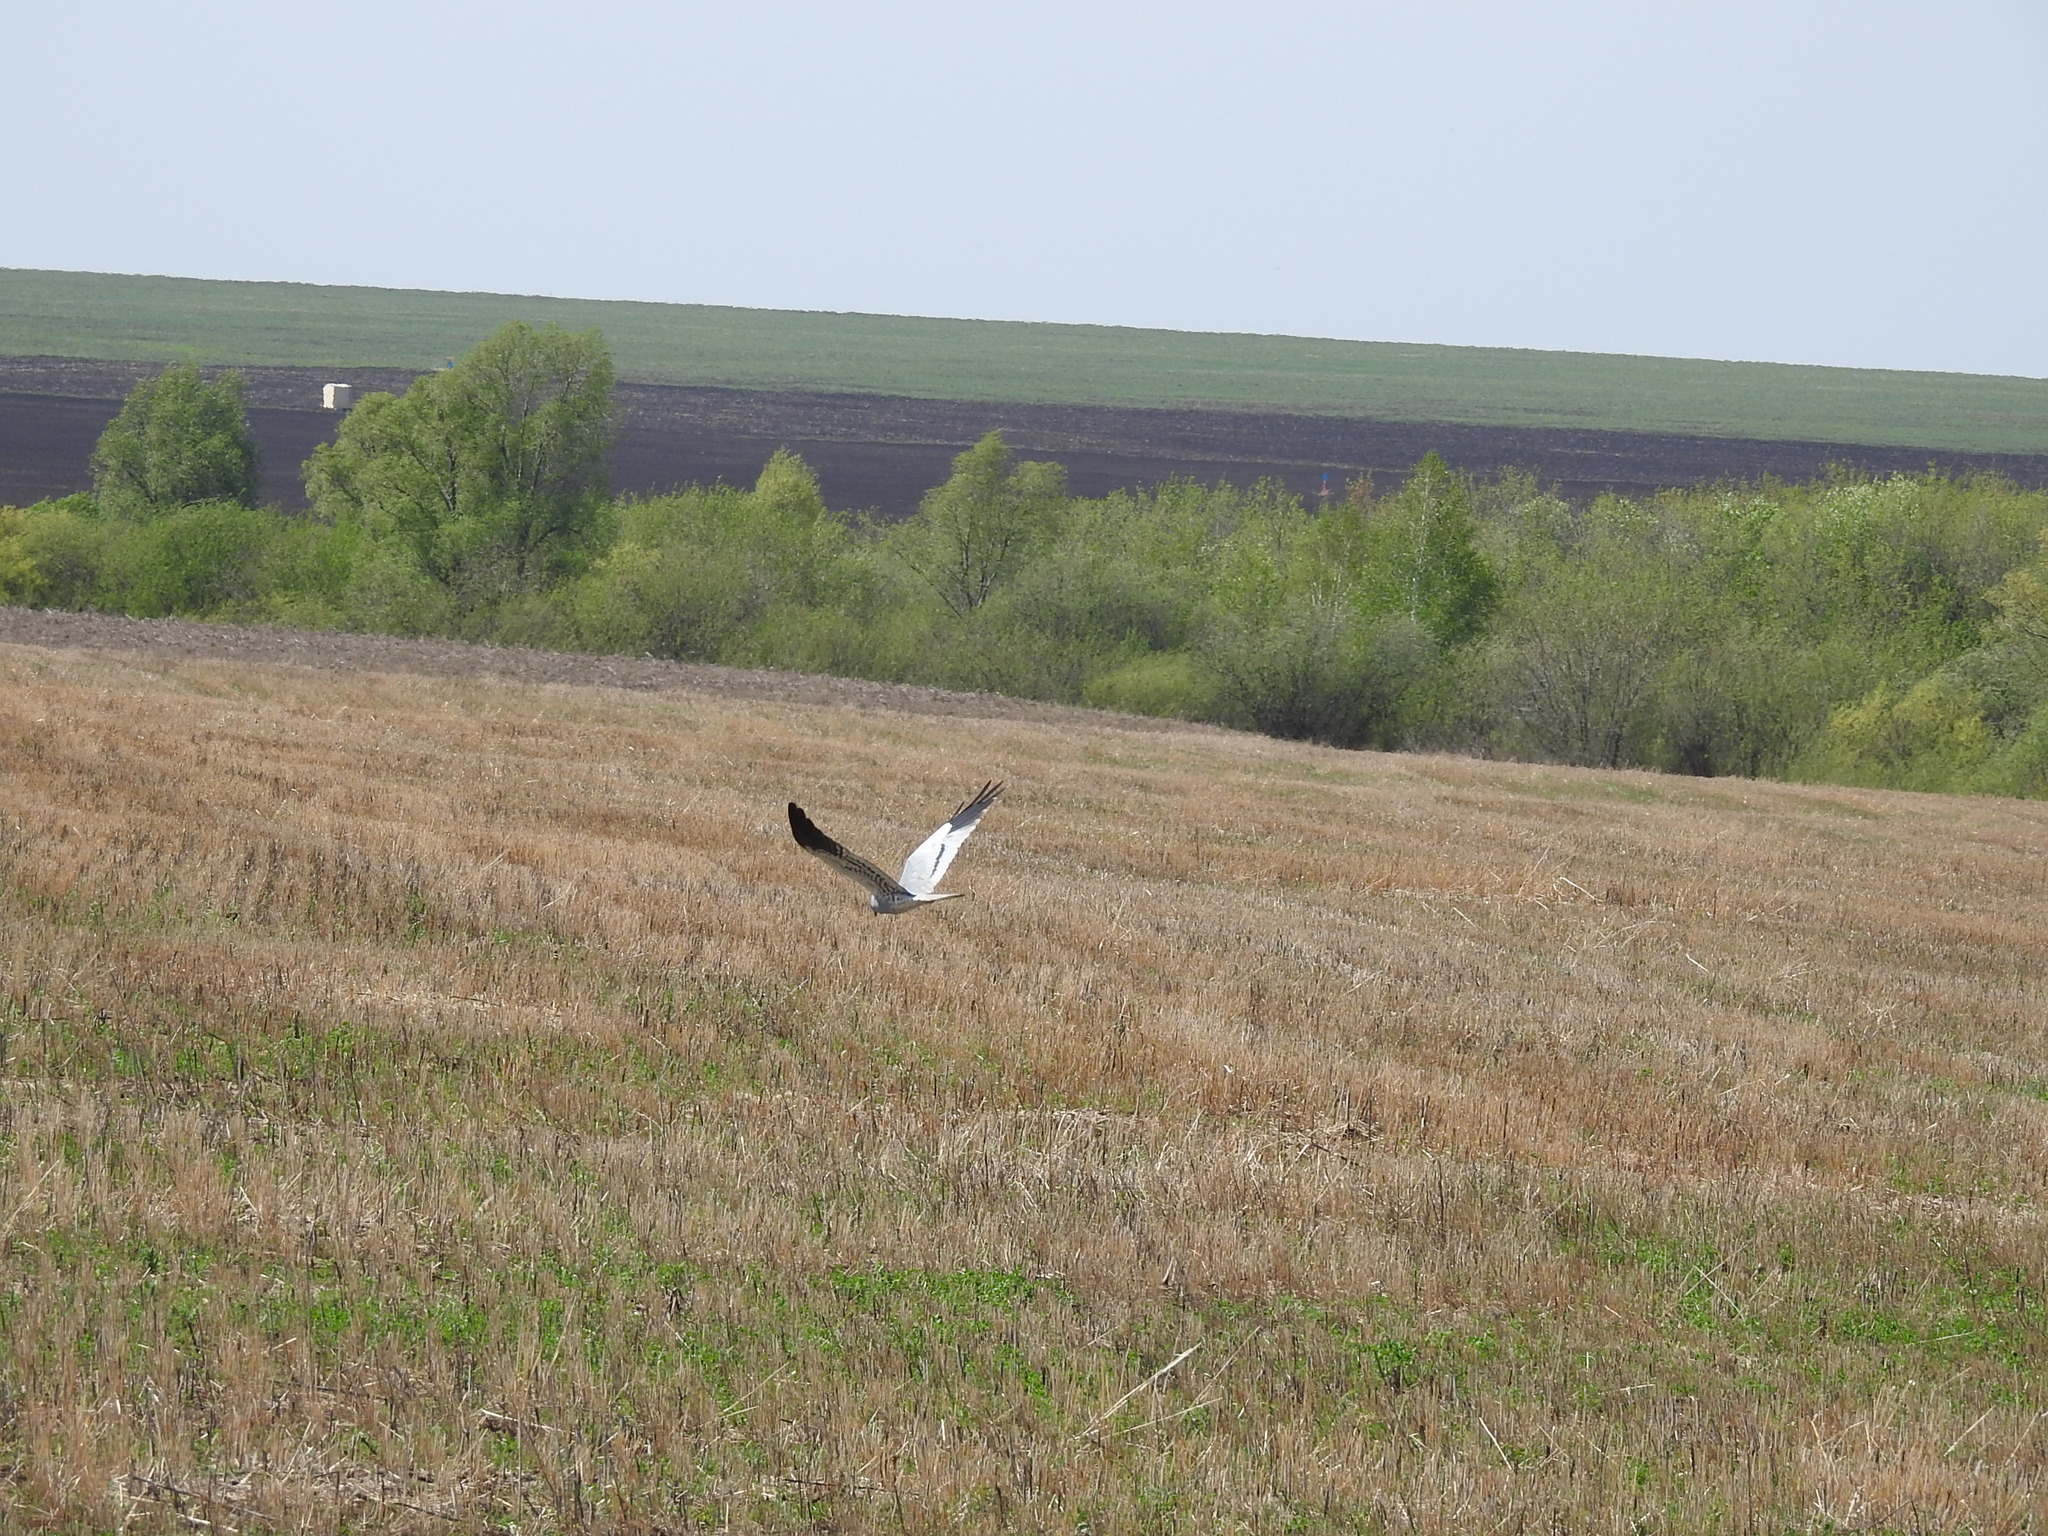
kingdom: Animalia
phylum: Chordata
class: Aves
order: Accipitriformes
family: Accipitridae
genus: Circus
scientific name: Circus pygargus
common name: Montagu's harrier
